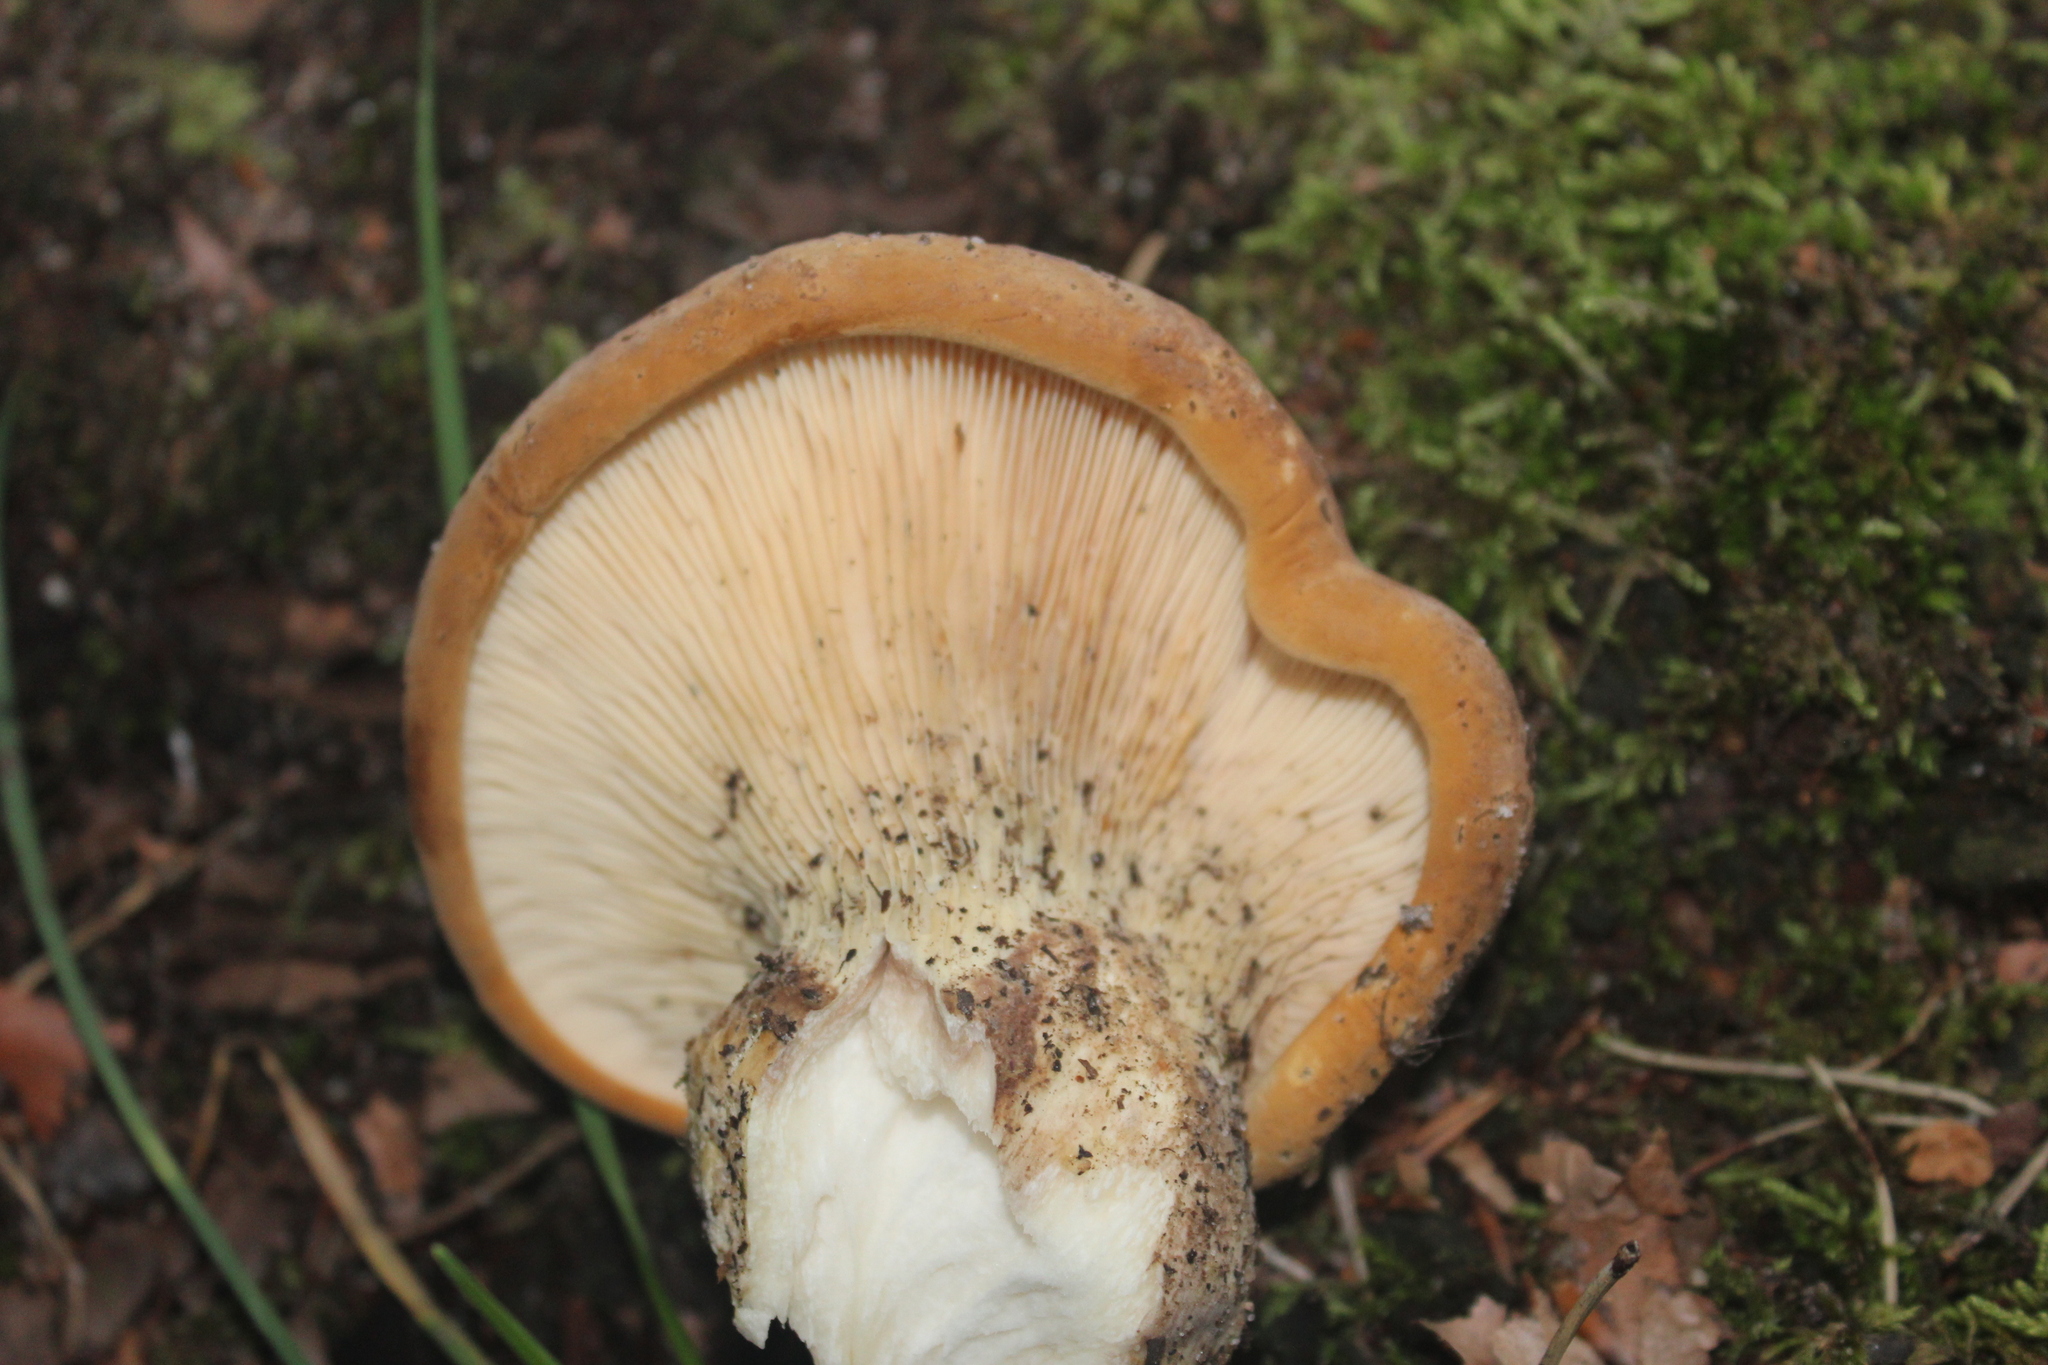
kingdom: Fungi
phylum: Basidiomycota
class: Agaricomycetes
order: Boletales
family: Tapinellaceae
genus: Tapinella
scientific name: Tapinella atrotomentosa
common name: Velvet rollrim
